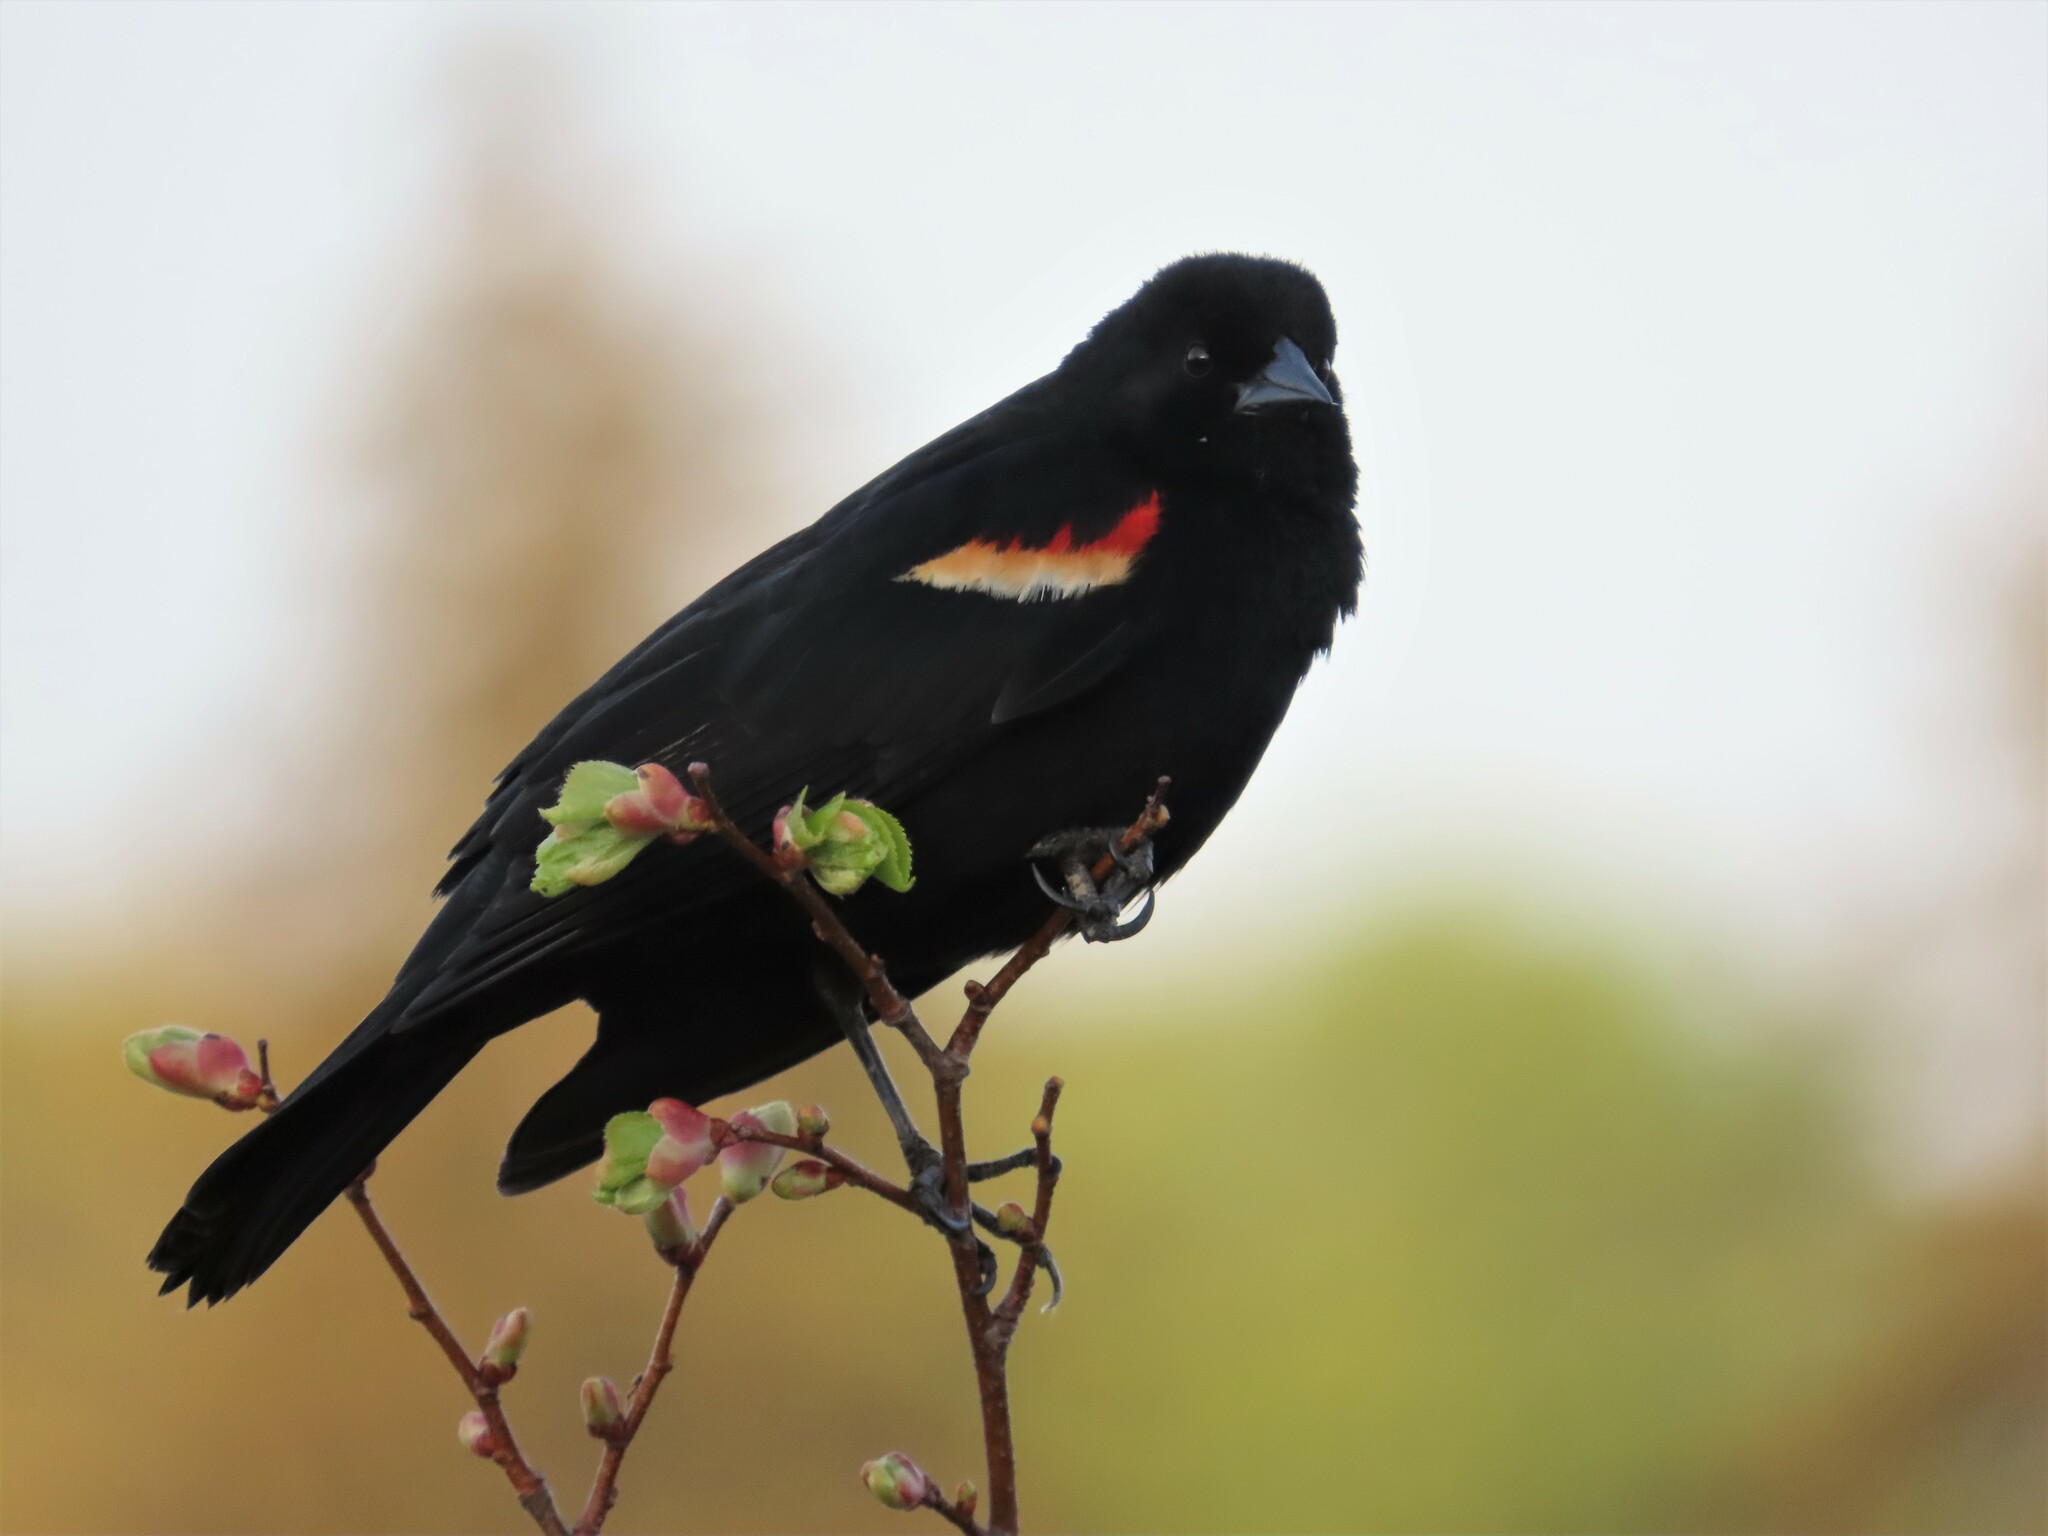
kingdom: Animalia
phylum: Chordata
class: Aves
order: Passeriformes
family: Icteridae
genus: Agelaius
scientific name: Agelaius phoeniceus
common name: Red-winged blackbird
